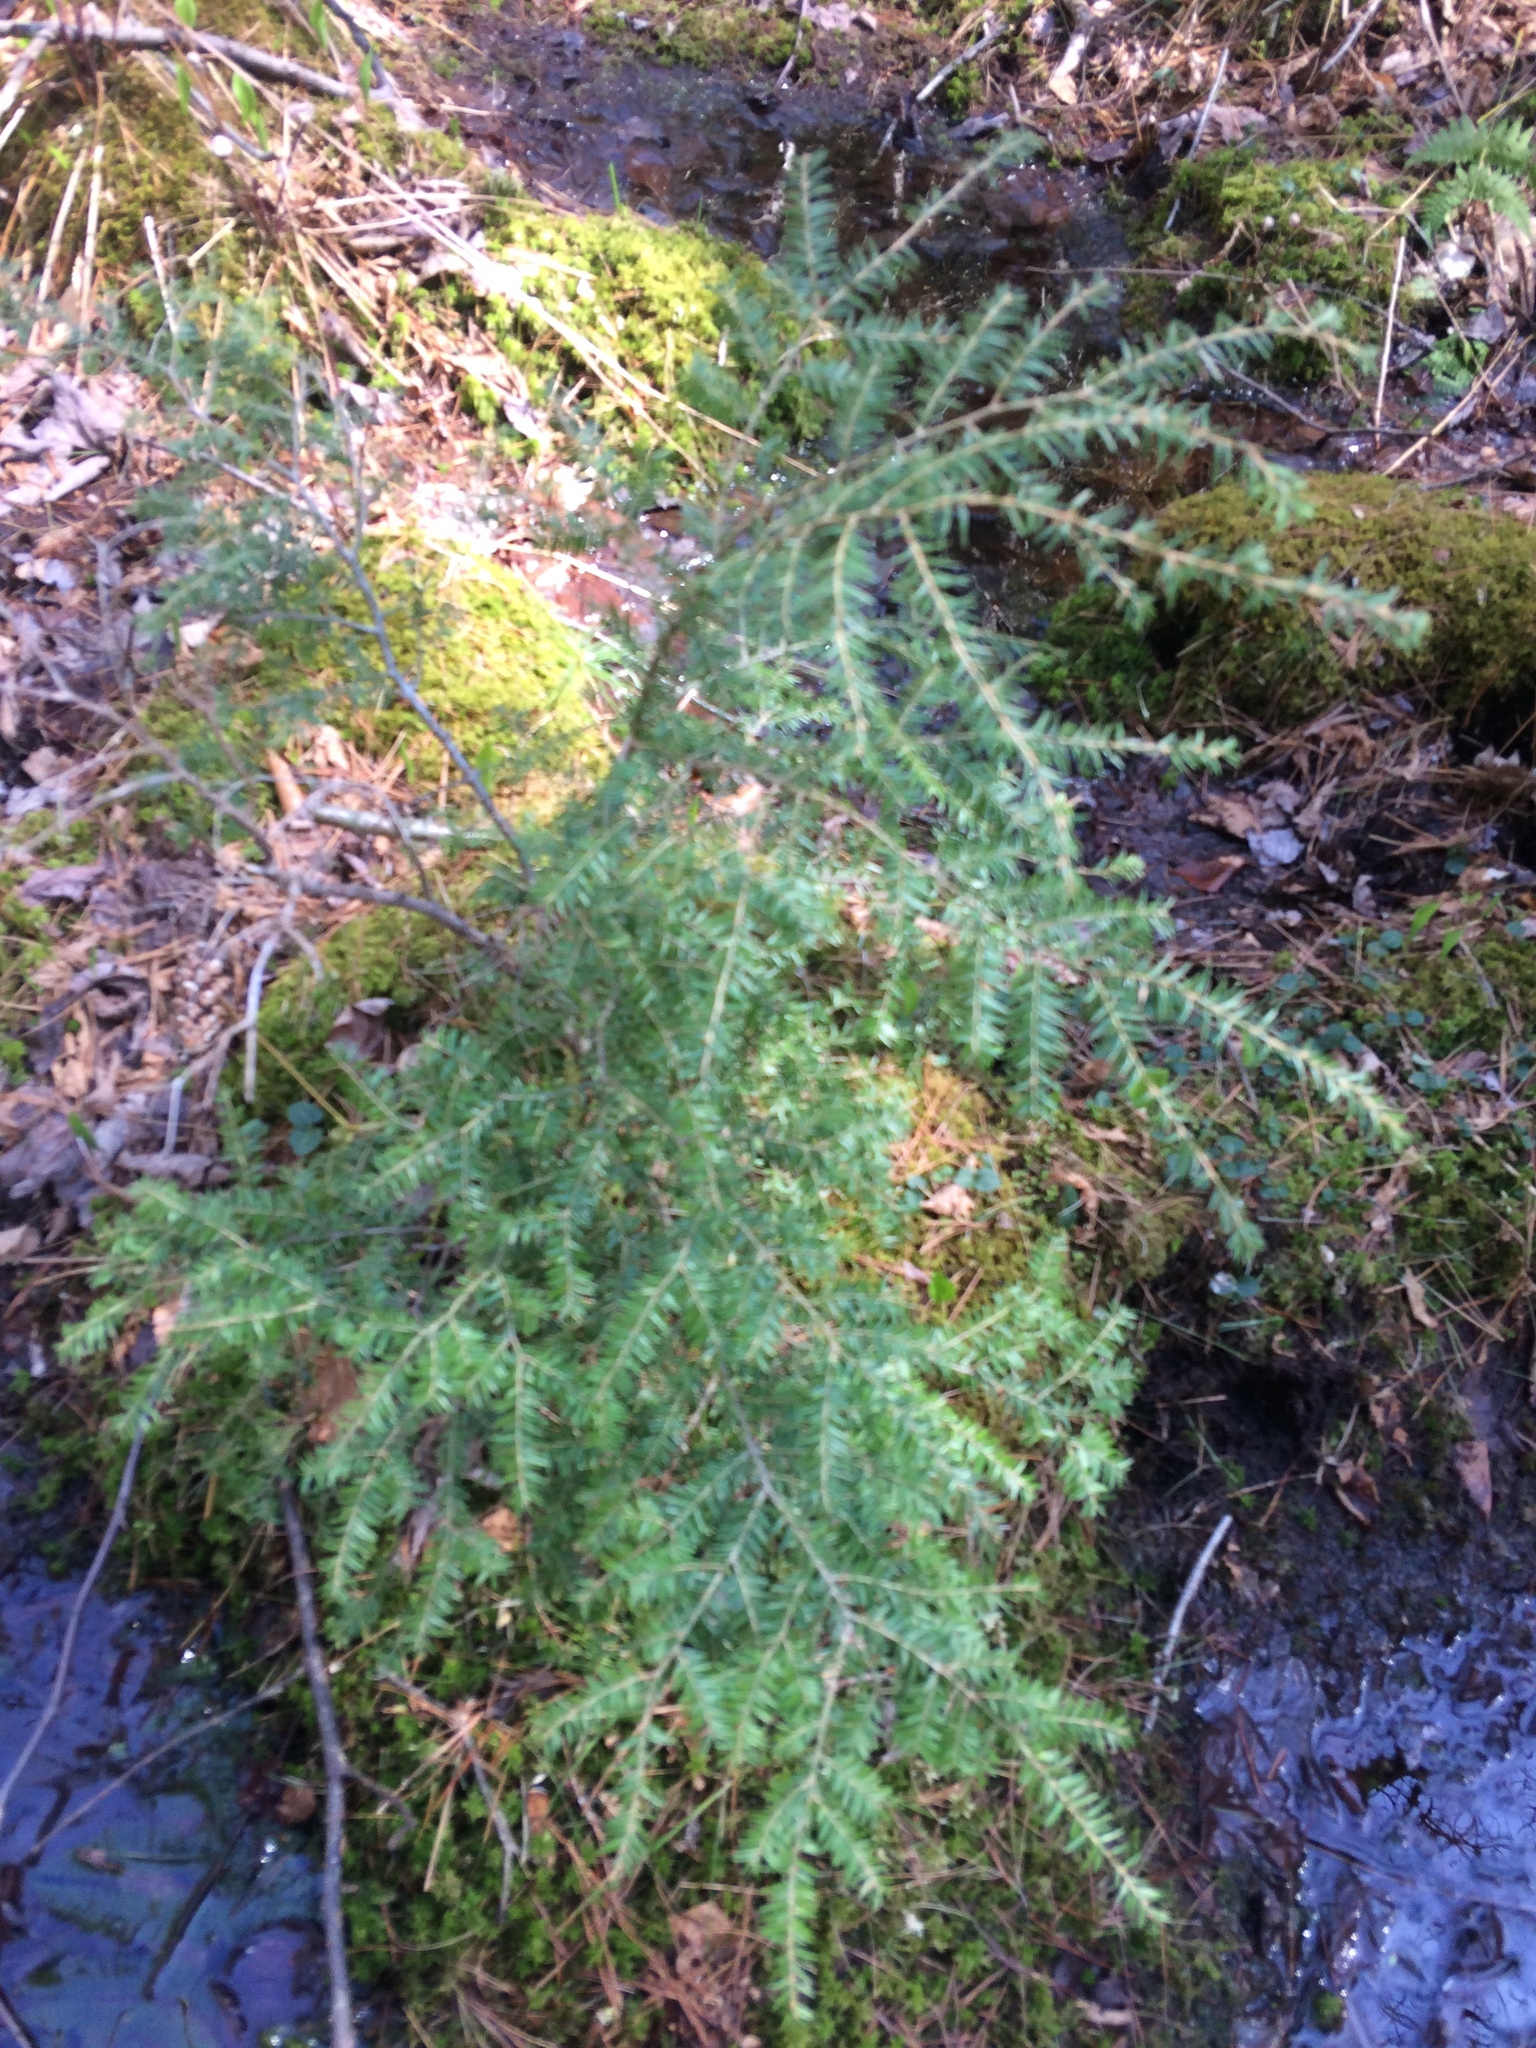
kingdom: Plantae
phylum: Tracheophyta
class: Pinopsida
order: Pinales
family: Pinaceae
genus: Tsuga
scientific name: Tsuga canadensis
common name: Eastern hemlock
